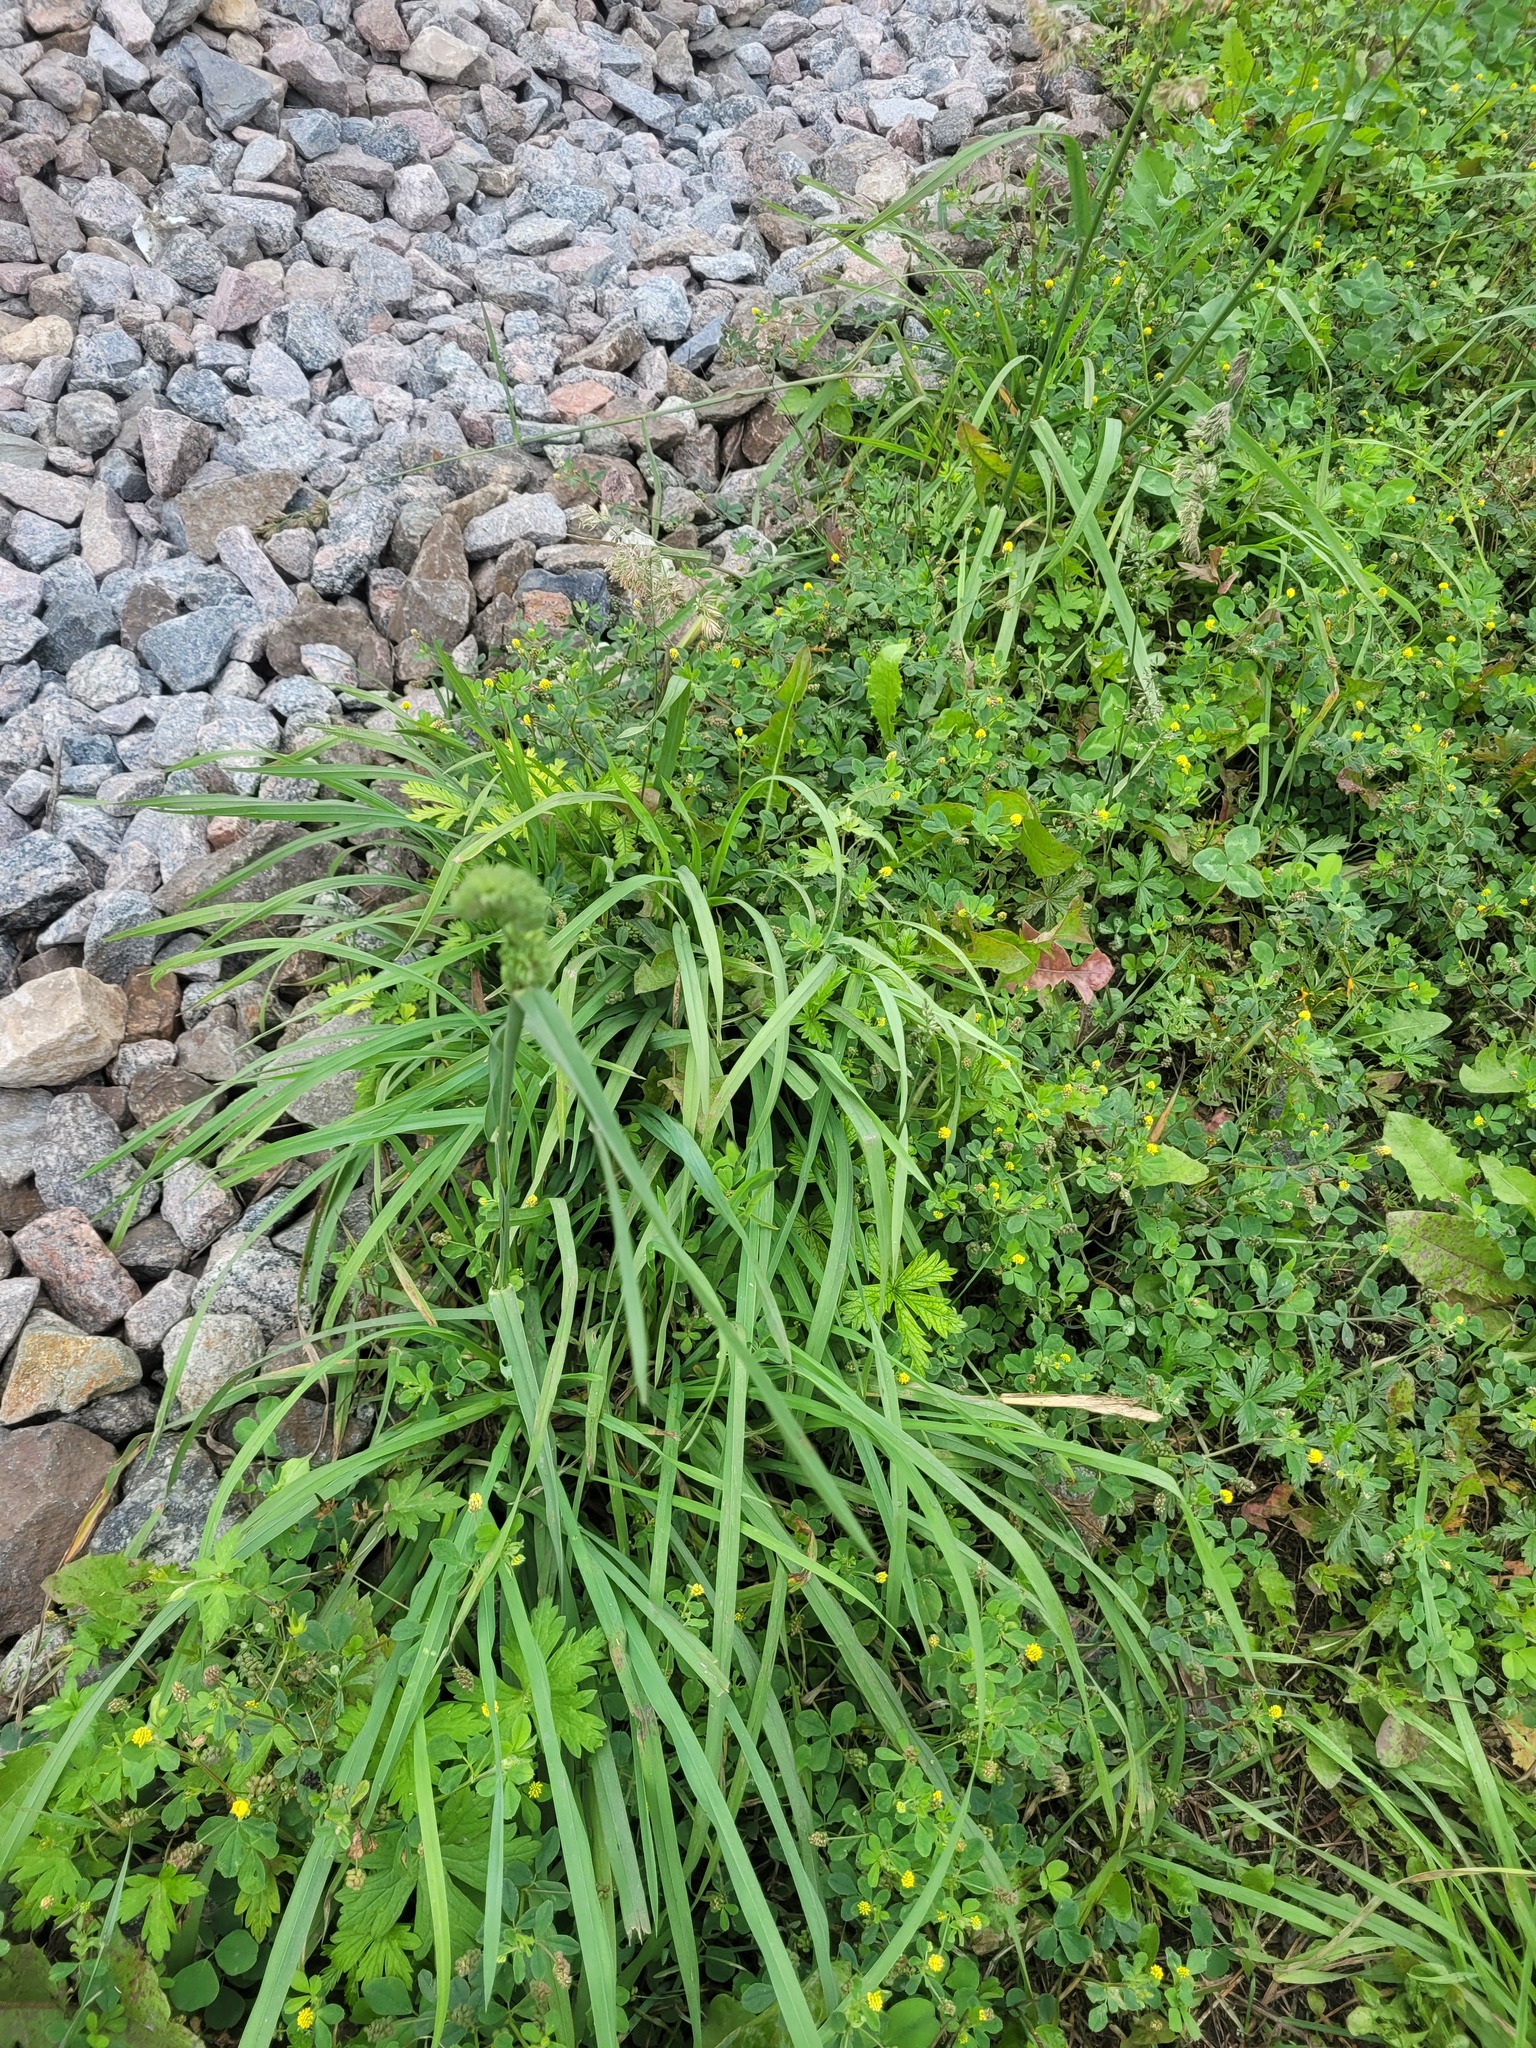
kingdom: Plantae
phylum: Tracheophyta
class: Liliopsida
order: Poales
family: Poaceae
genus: Dactylis
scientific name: Dactylis glomerata
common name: Orchardgrass
